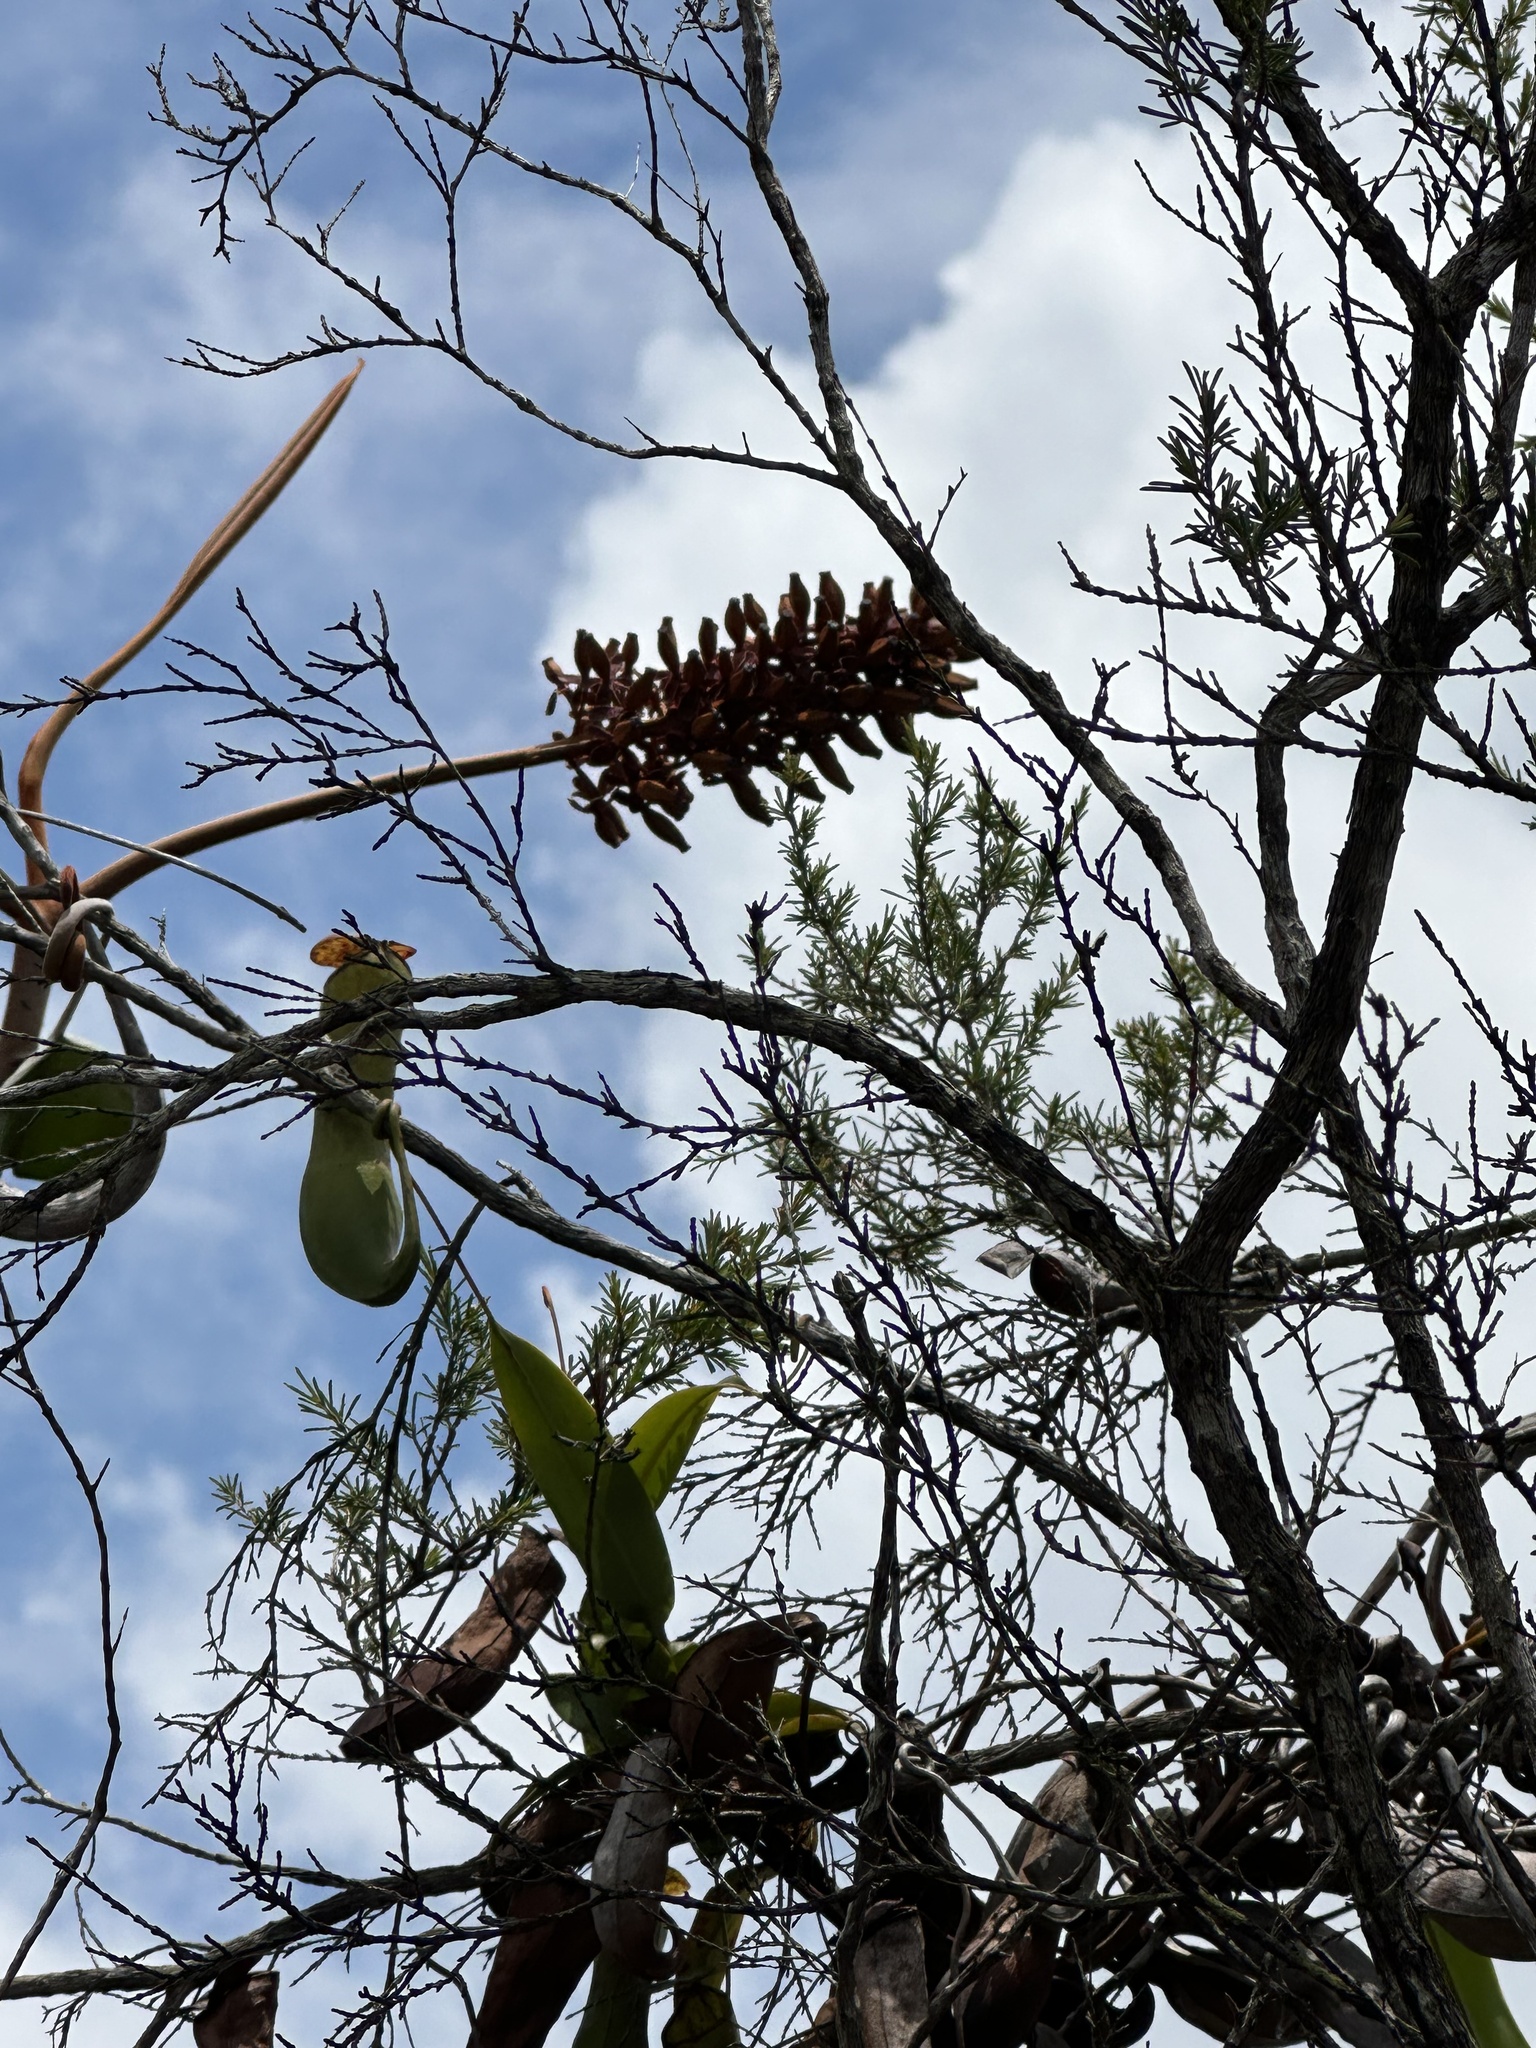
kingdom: Plantae
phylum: Tracheophyta
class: Magnoliopsida
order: Caryophyllales
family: Nepenthaceae
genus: Nepenthes
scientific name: Nepenthes rafflesiana
